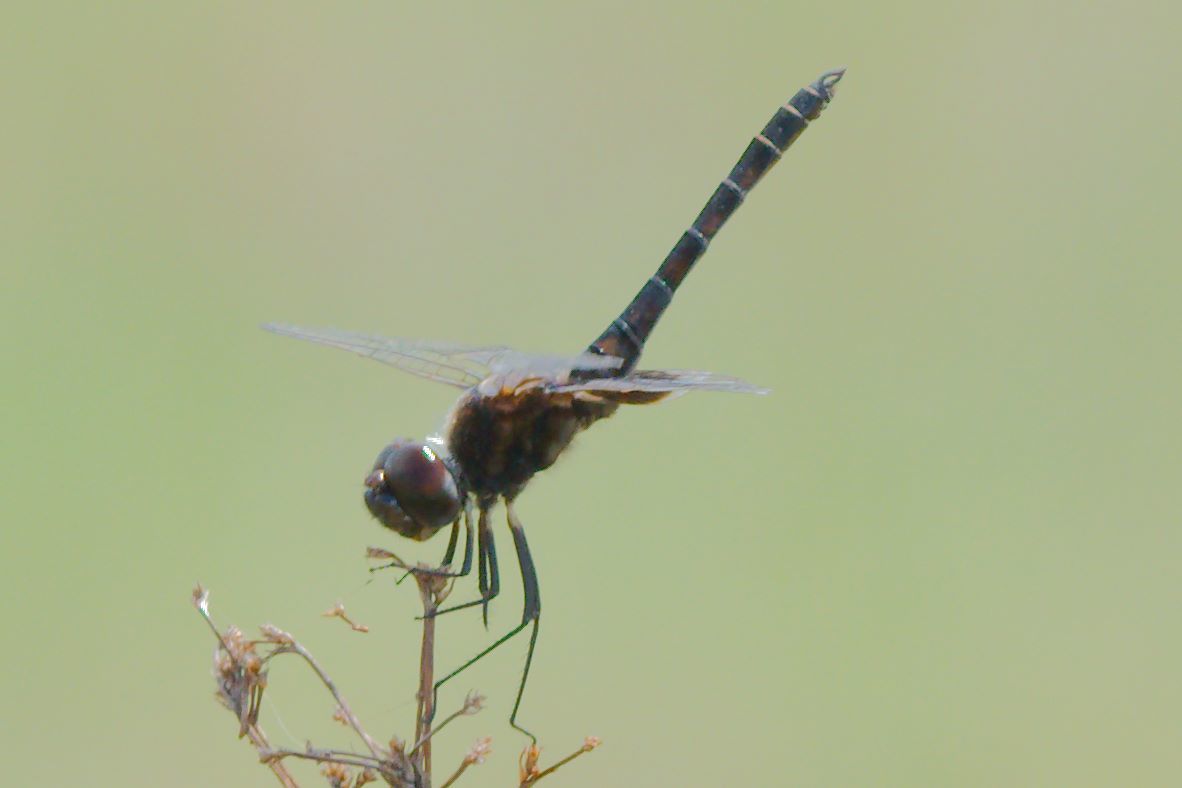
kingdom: Animalia
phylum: Arthropoda
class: Insecta
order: Odonata
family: Libellulidae
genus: Macrodiplax
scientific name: Macrodiplax balteata
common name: Marl pennant
